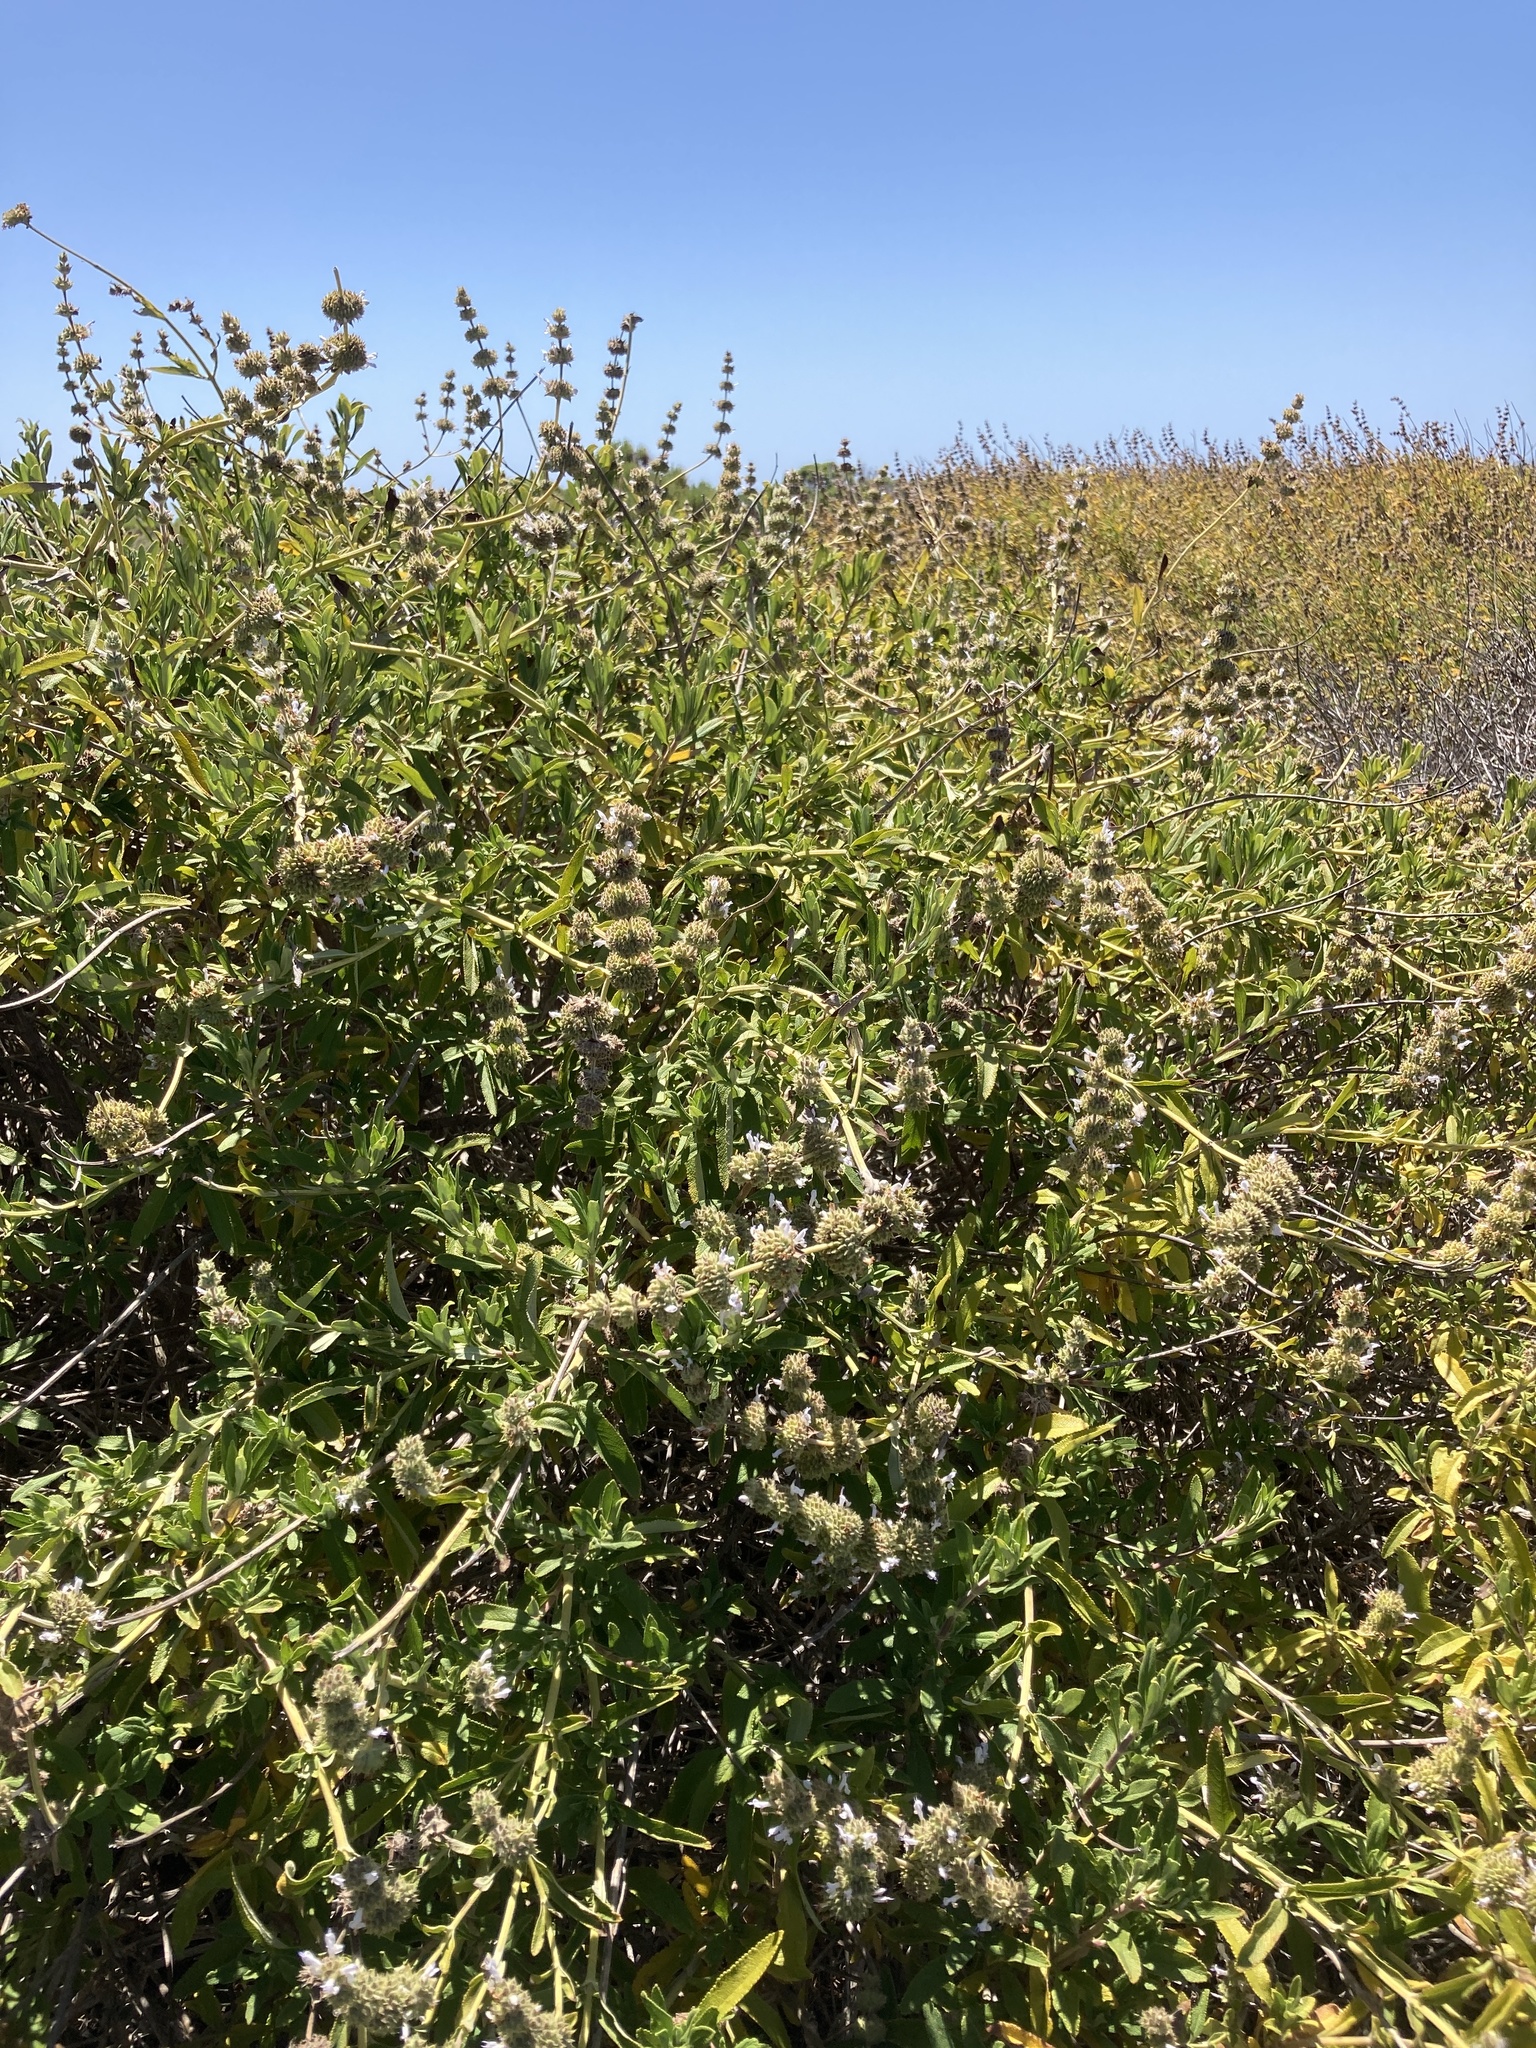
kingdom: Plantae
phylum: Tracheophyta
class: Magnoliopsida
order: Lamiales
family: Lamiaceae
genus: Salvia
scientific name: Salvia mellifera
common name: Black sage
